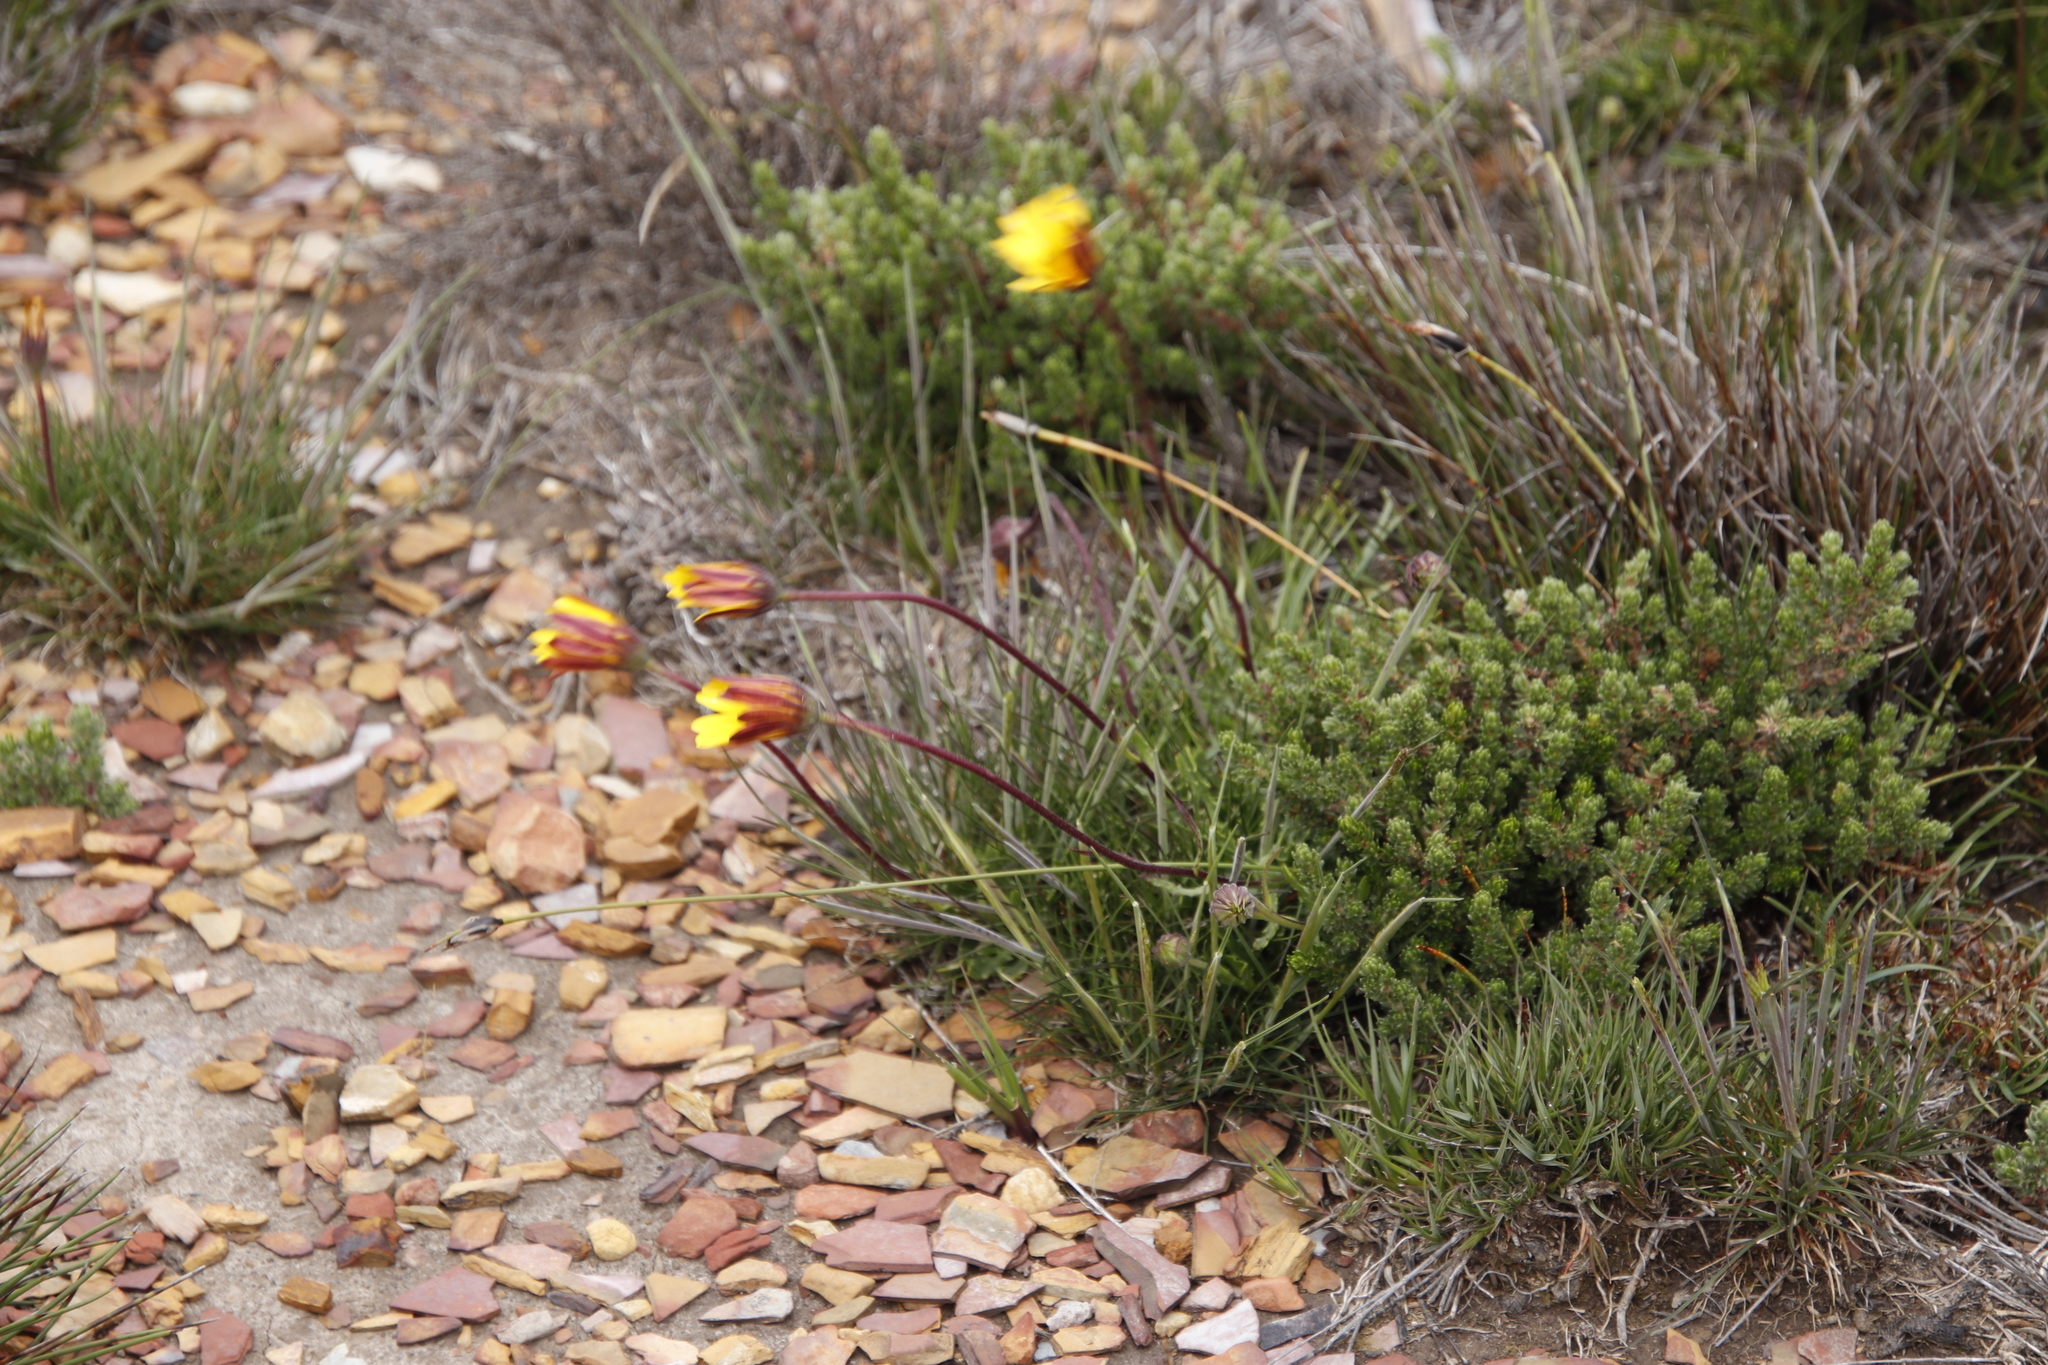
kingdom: Plantae
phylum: Tracheophyta
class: Magnoliopsida
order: Asterales
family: Asteraceae
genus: Dimorphotheca
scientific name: Dimorphotheca montana
